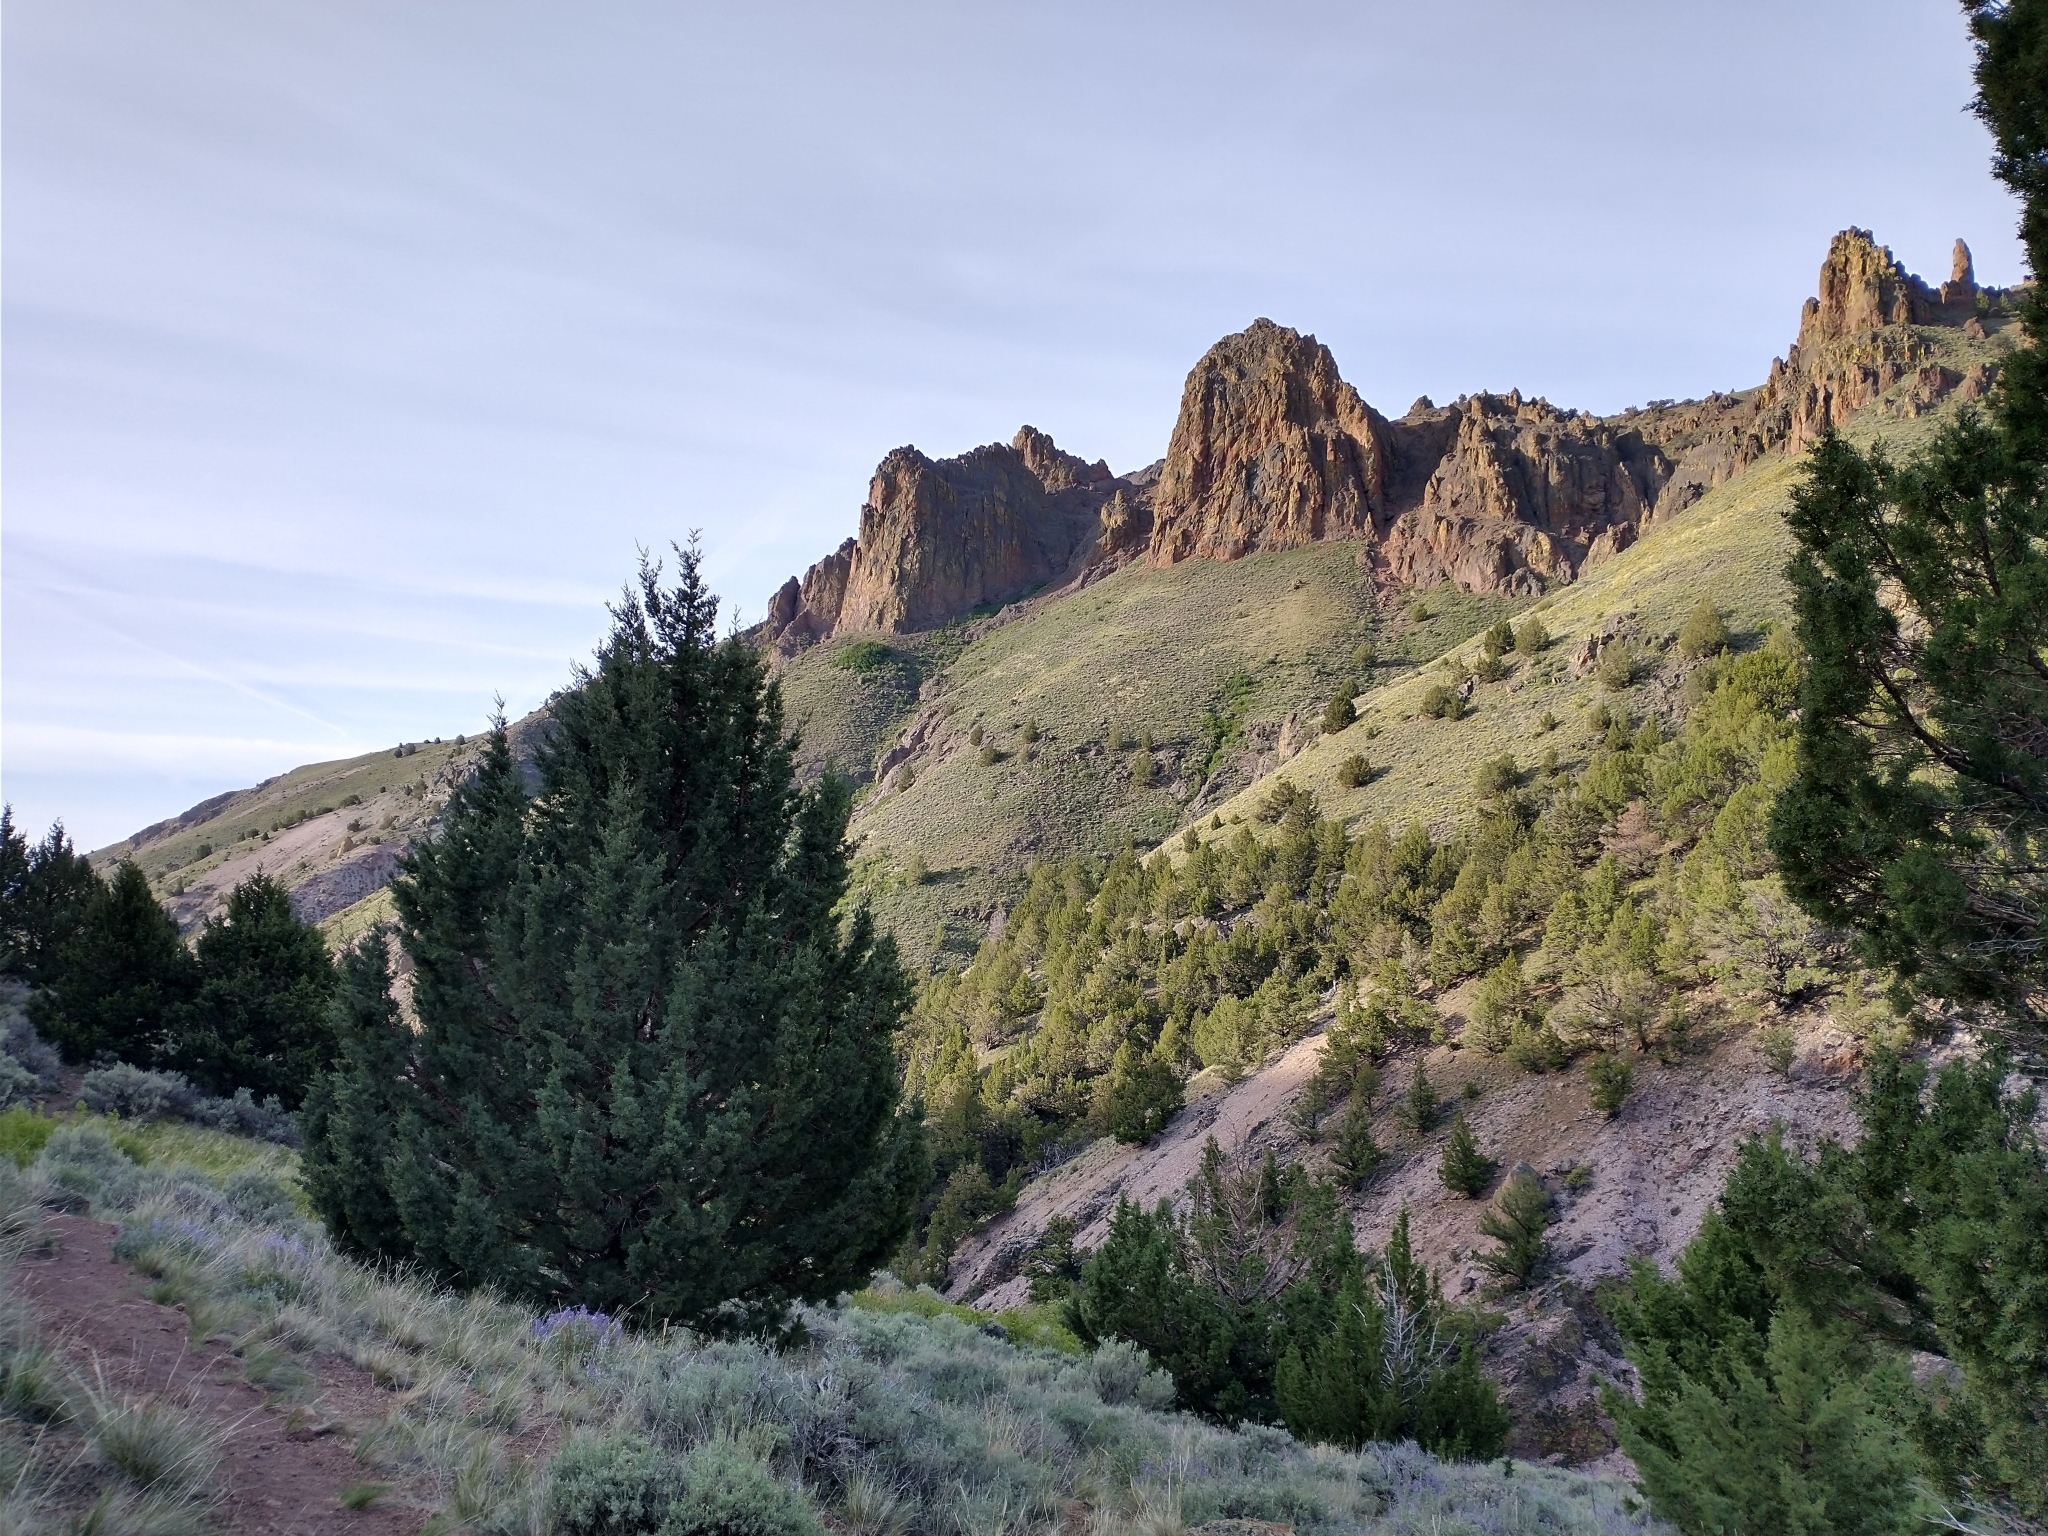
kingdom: Plantae
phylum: Tracheophyta
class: Pinopsida
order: Pinales
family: Cupressaceae
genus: Juniperus
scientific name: Juniperus occidentalis
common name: Western juniper
